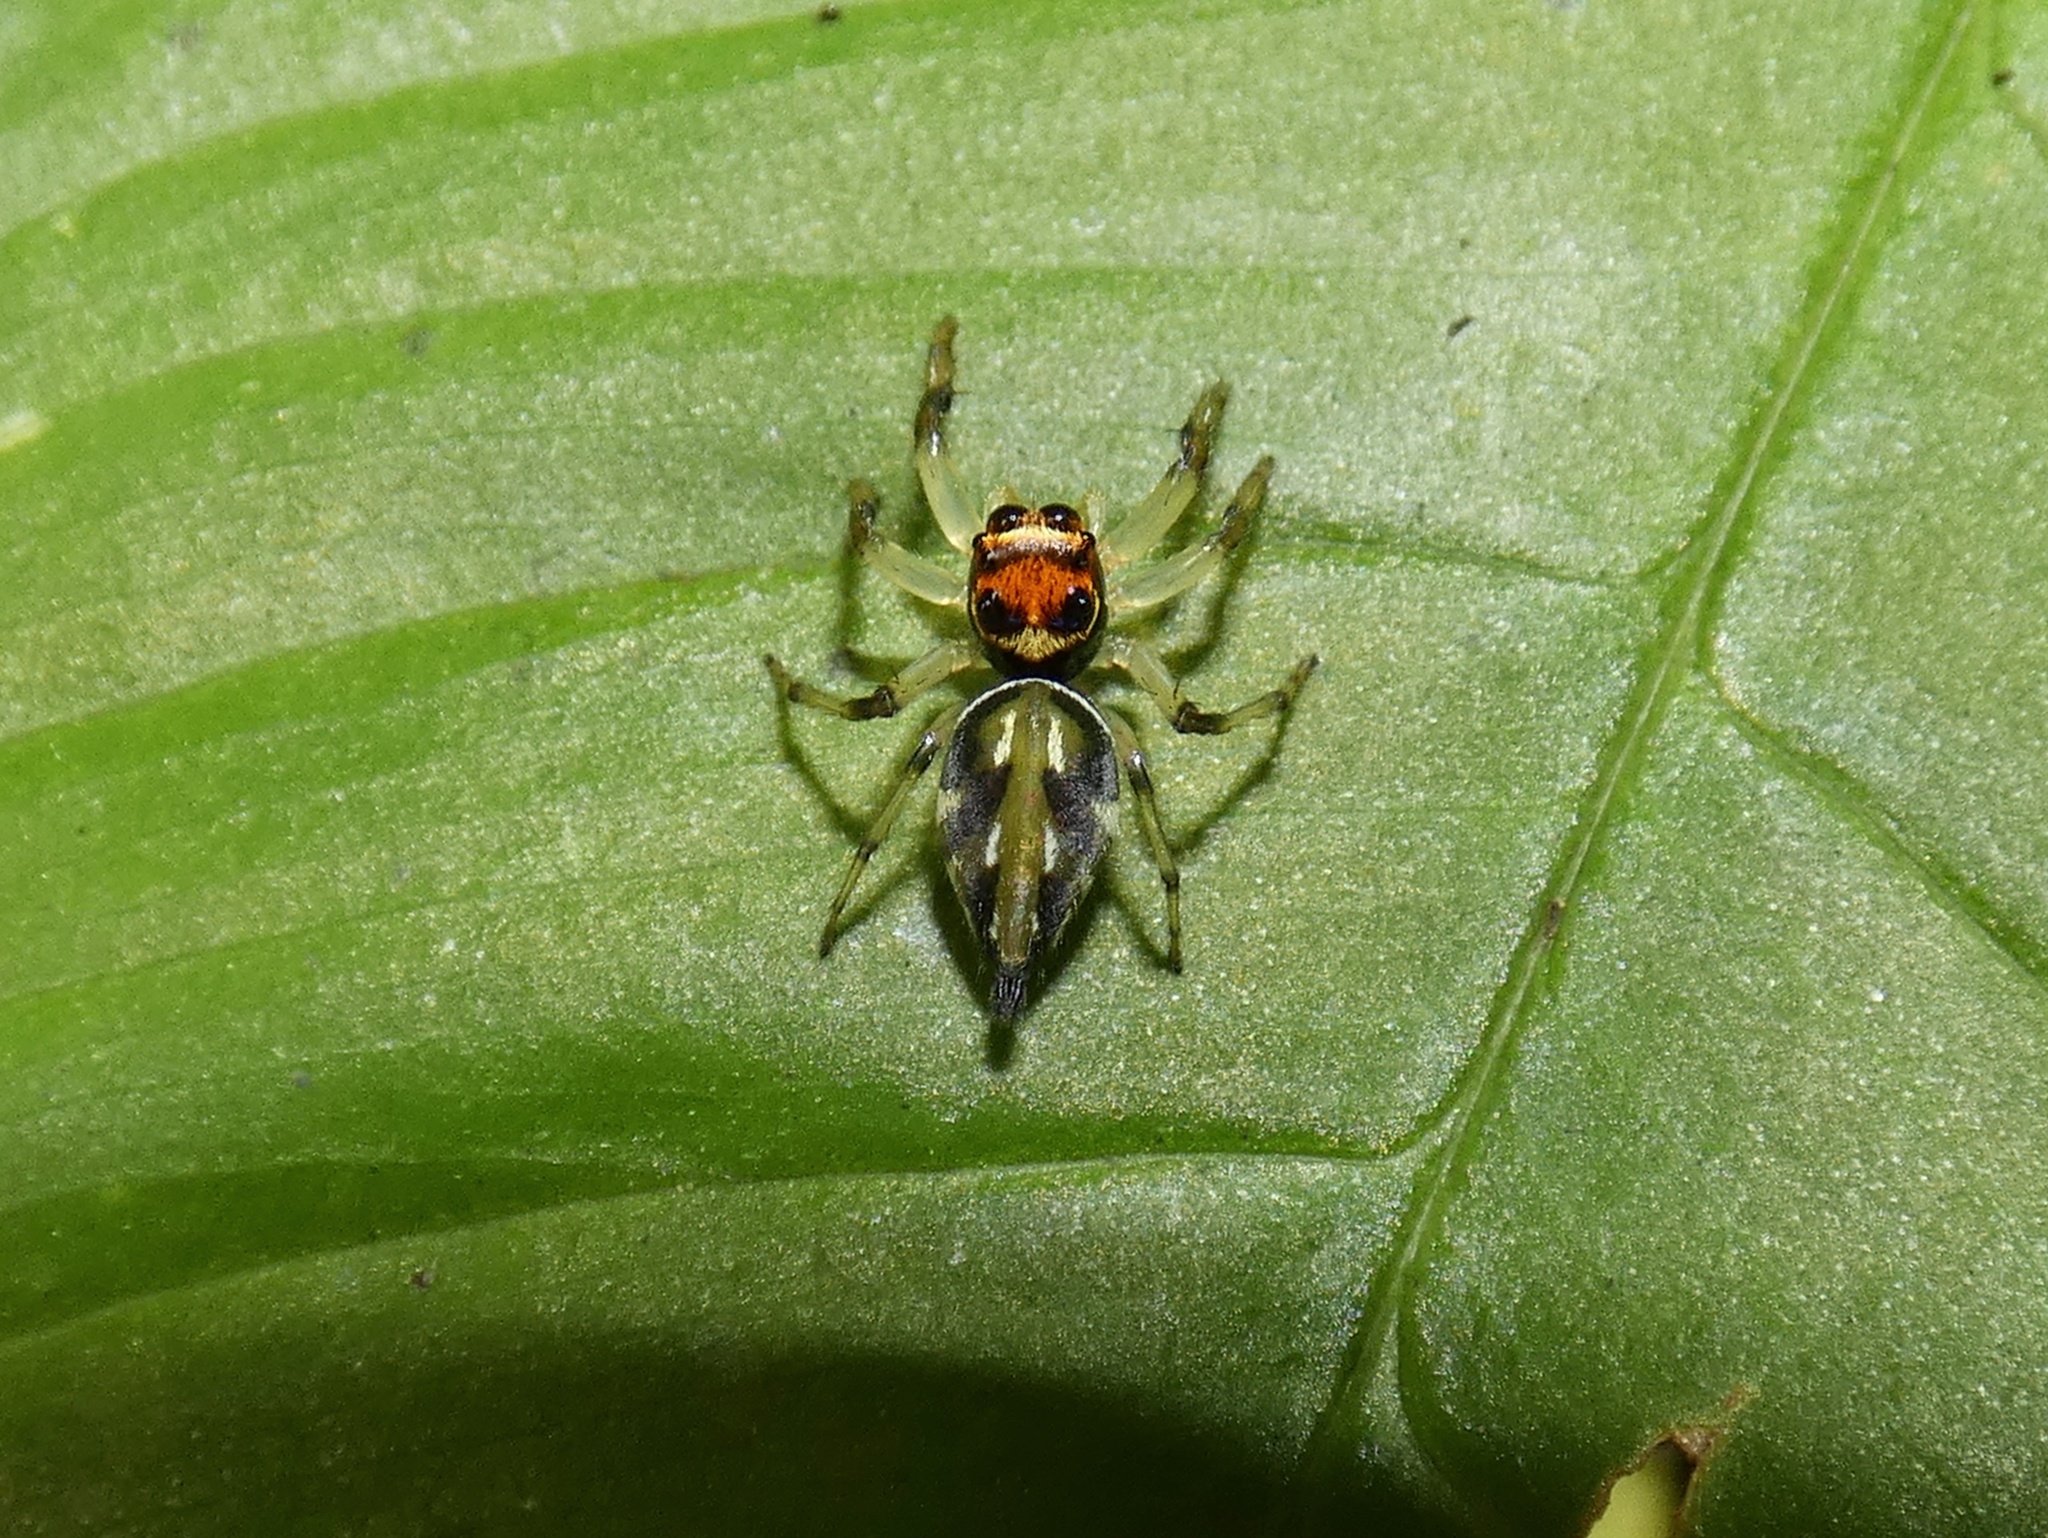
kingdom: Animalia
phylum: Arthropoda
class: Arachnida
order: Araneae
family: Salticidae
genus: Hypaeus
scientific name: Hypaeus benignus
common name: Jumping spiders
